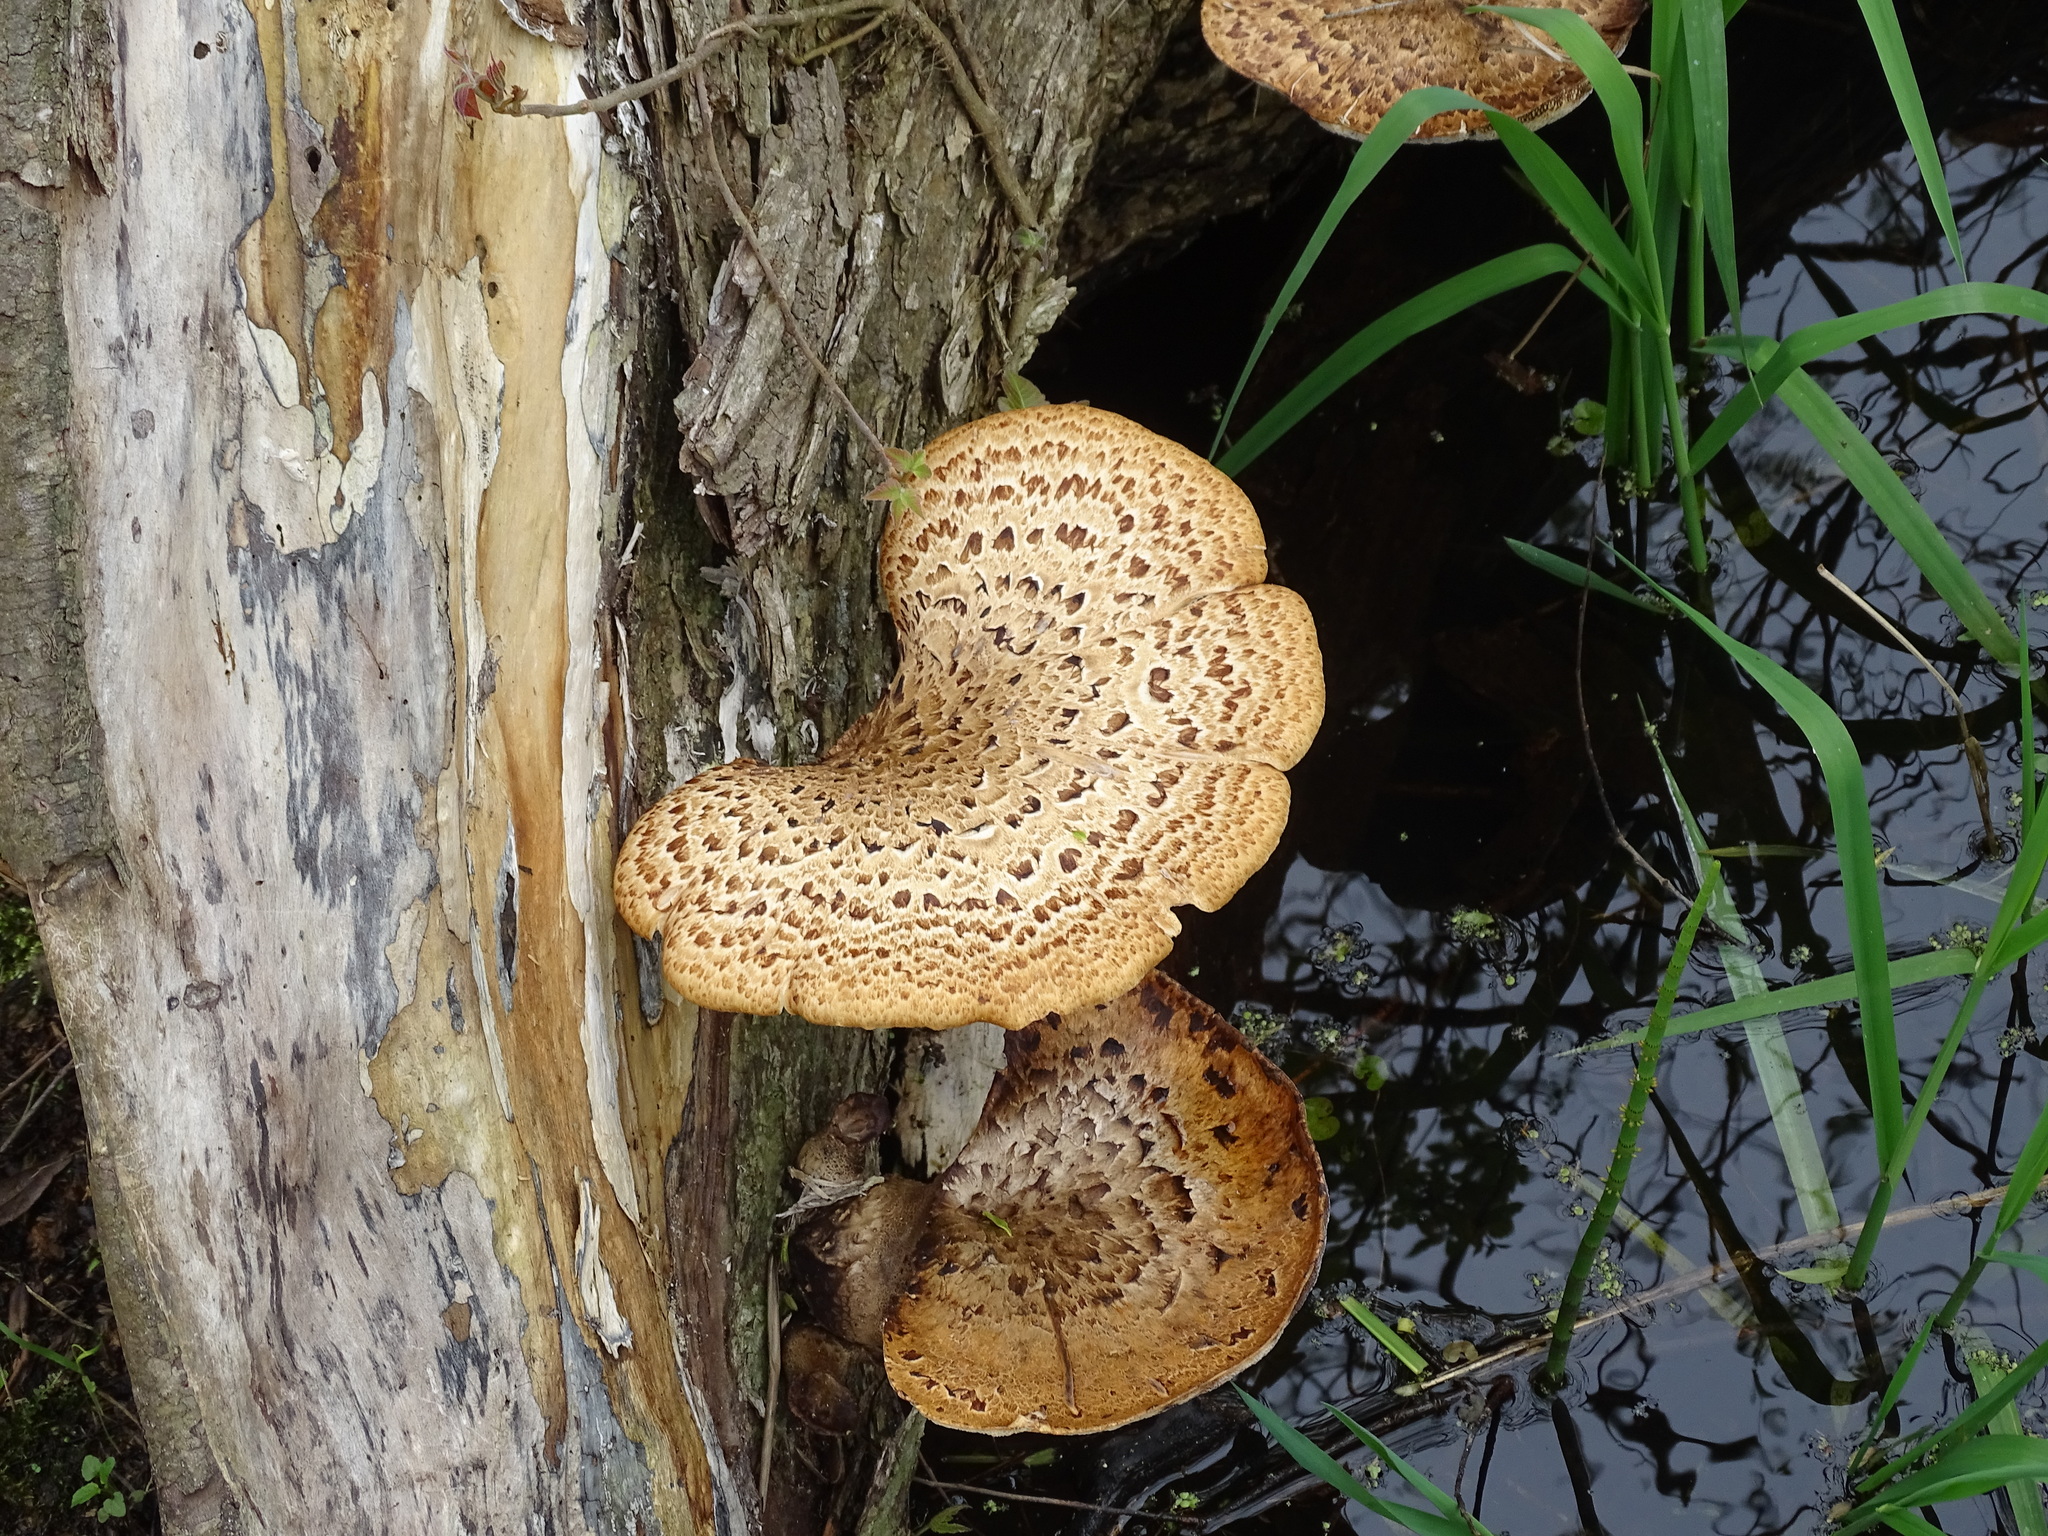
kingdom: Fungi
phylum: Basidiomycota
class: Agaricomycetes
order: Polyporales
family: Polyporaceae
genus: Cerioporus
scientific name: Cerioporus squamosus
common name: Dryad's saddle
